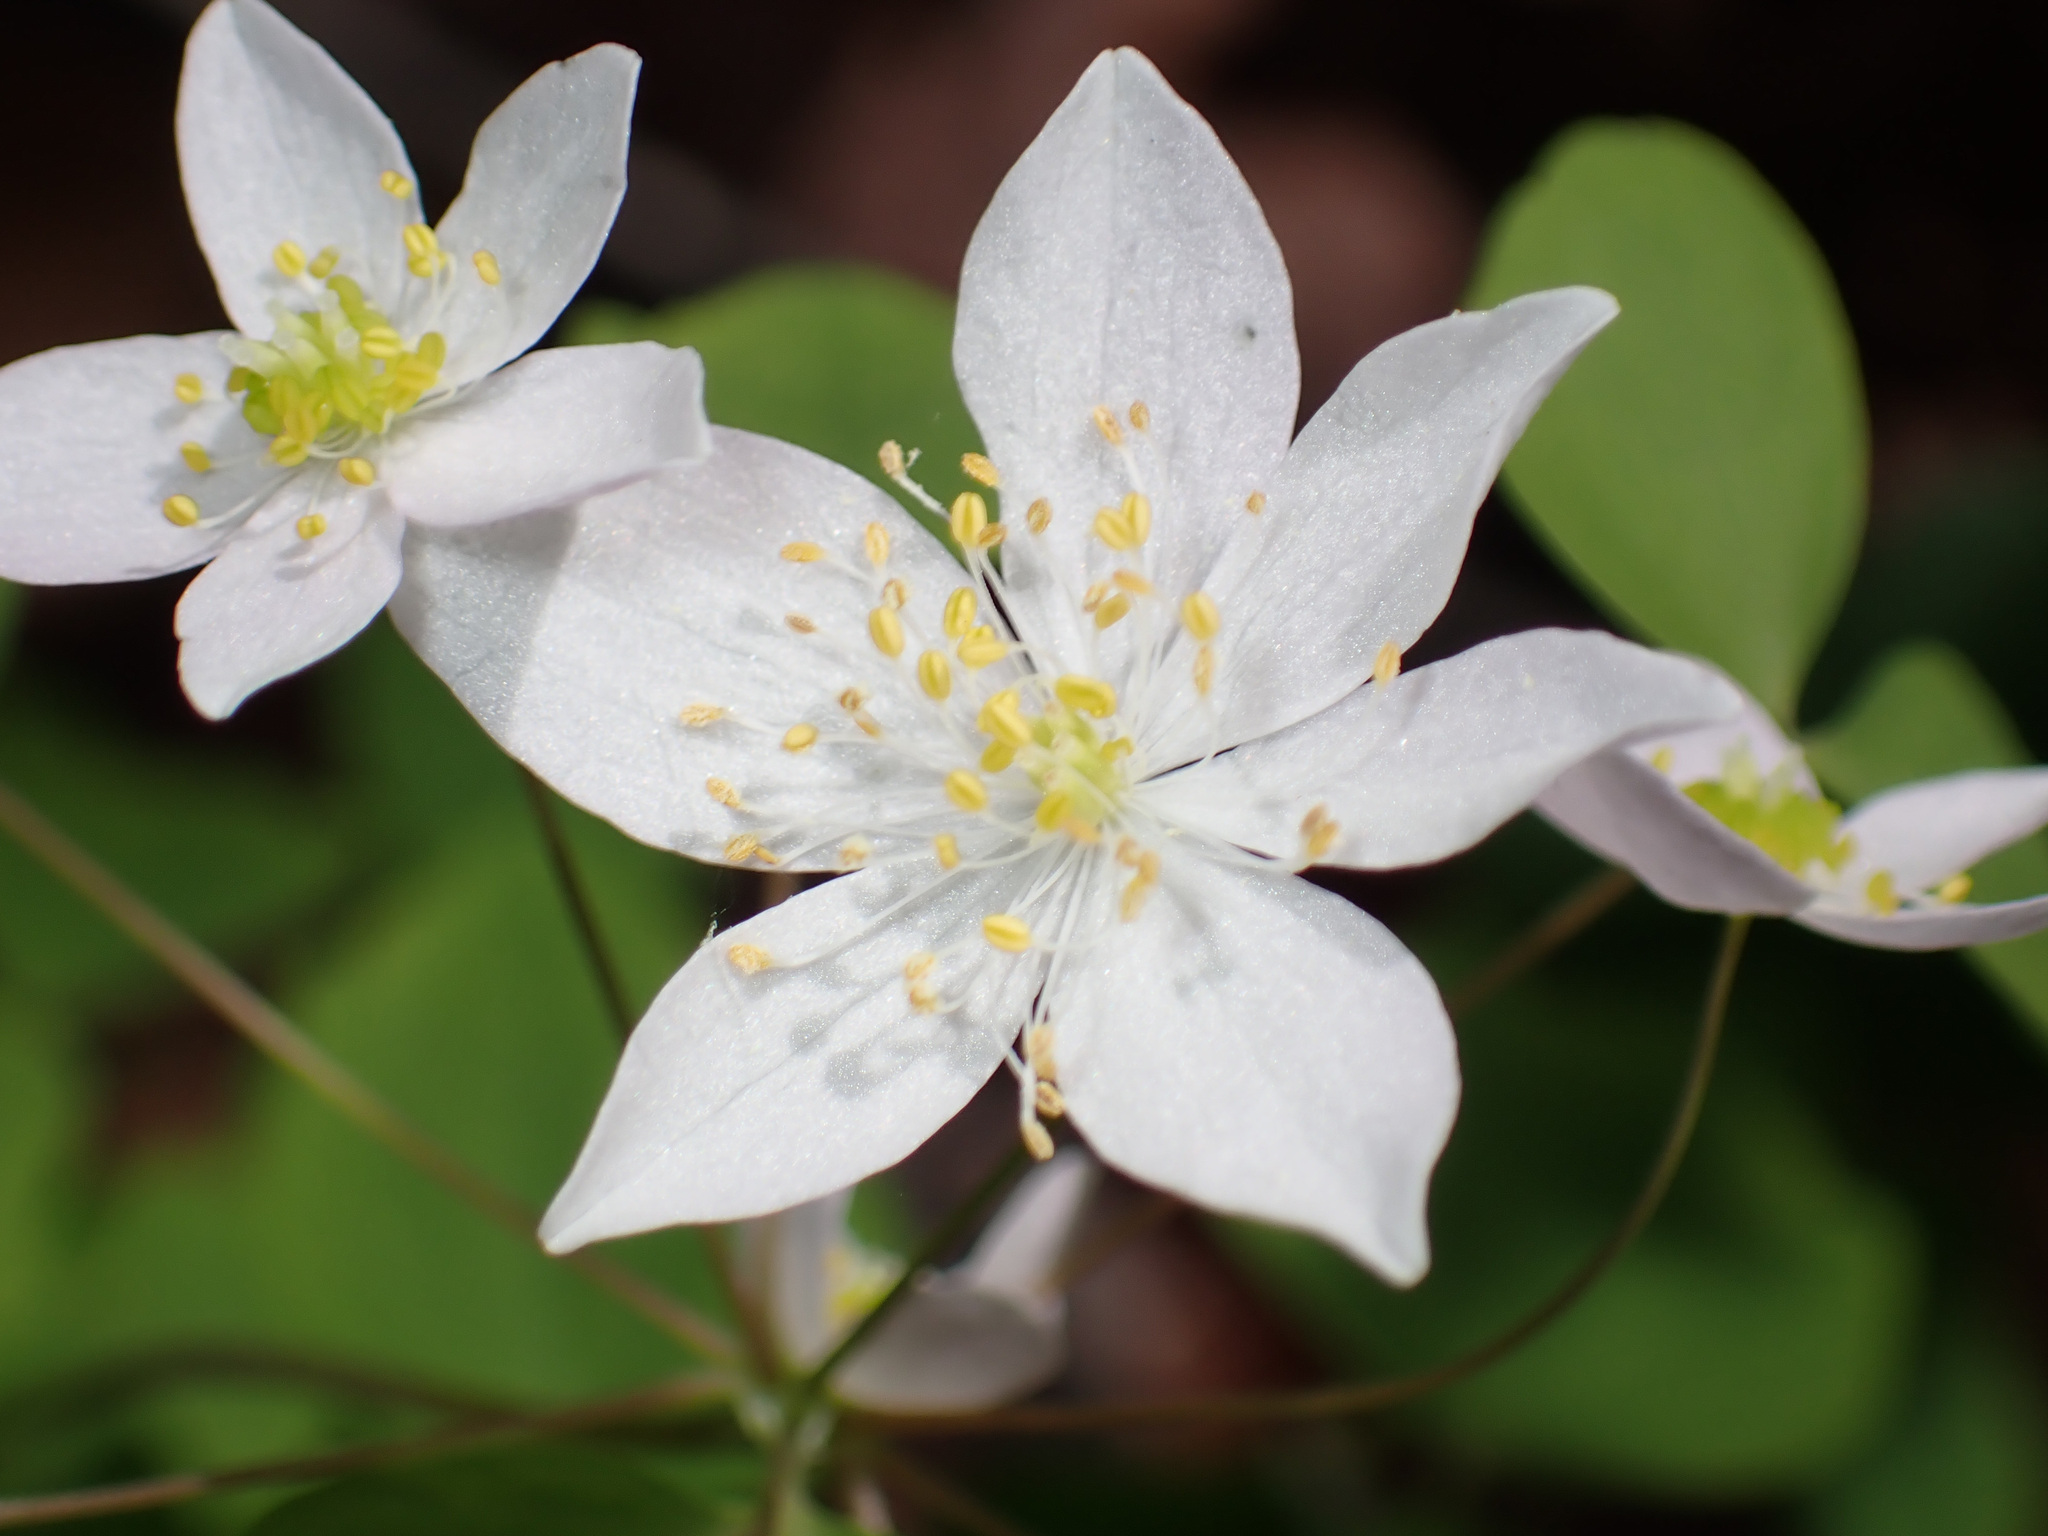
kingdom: Plantae
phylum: Tracheophyta
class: Magnoliopsida
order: Ranunculales
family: Ranunculaceae
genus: Thalictrum
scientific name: Thalictrum thalictroides
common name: Rue-anemone
